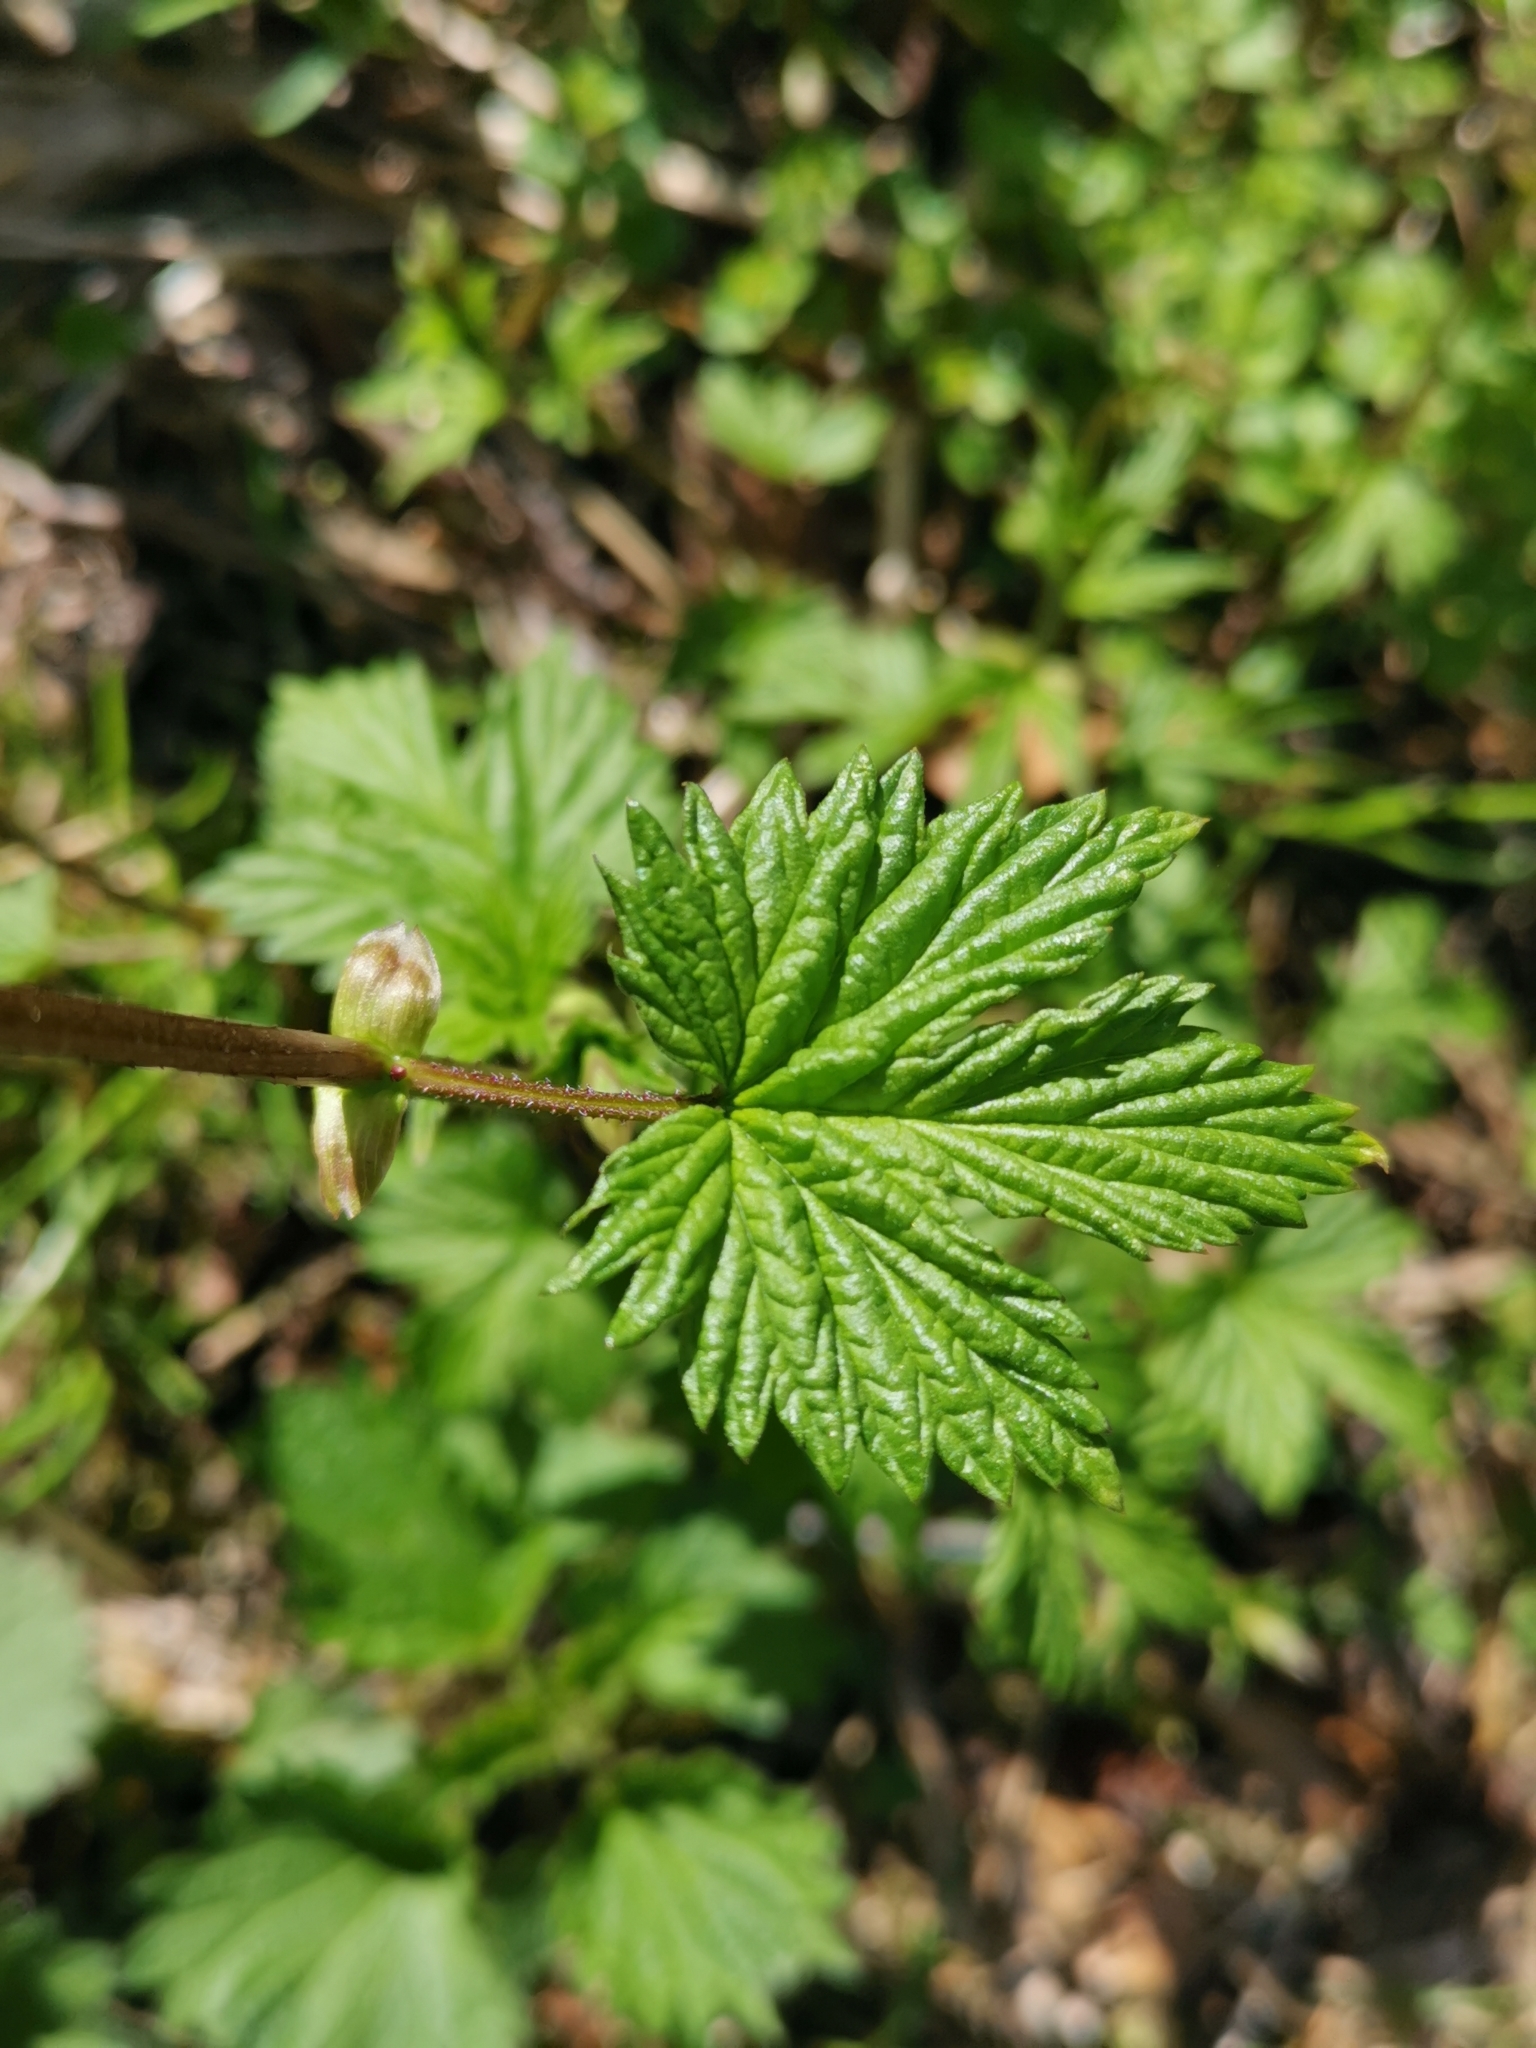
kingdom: Plantae
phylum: Tracheophyta
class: Magnoliopsida
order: Rosales
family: Cannabaceae
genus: Humulus
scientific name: Humulus lupulus
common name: Hop
